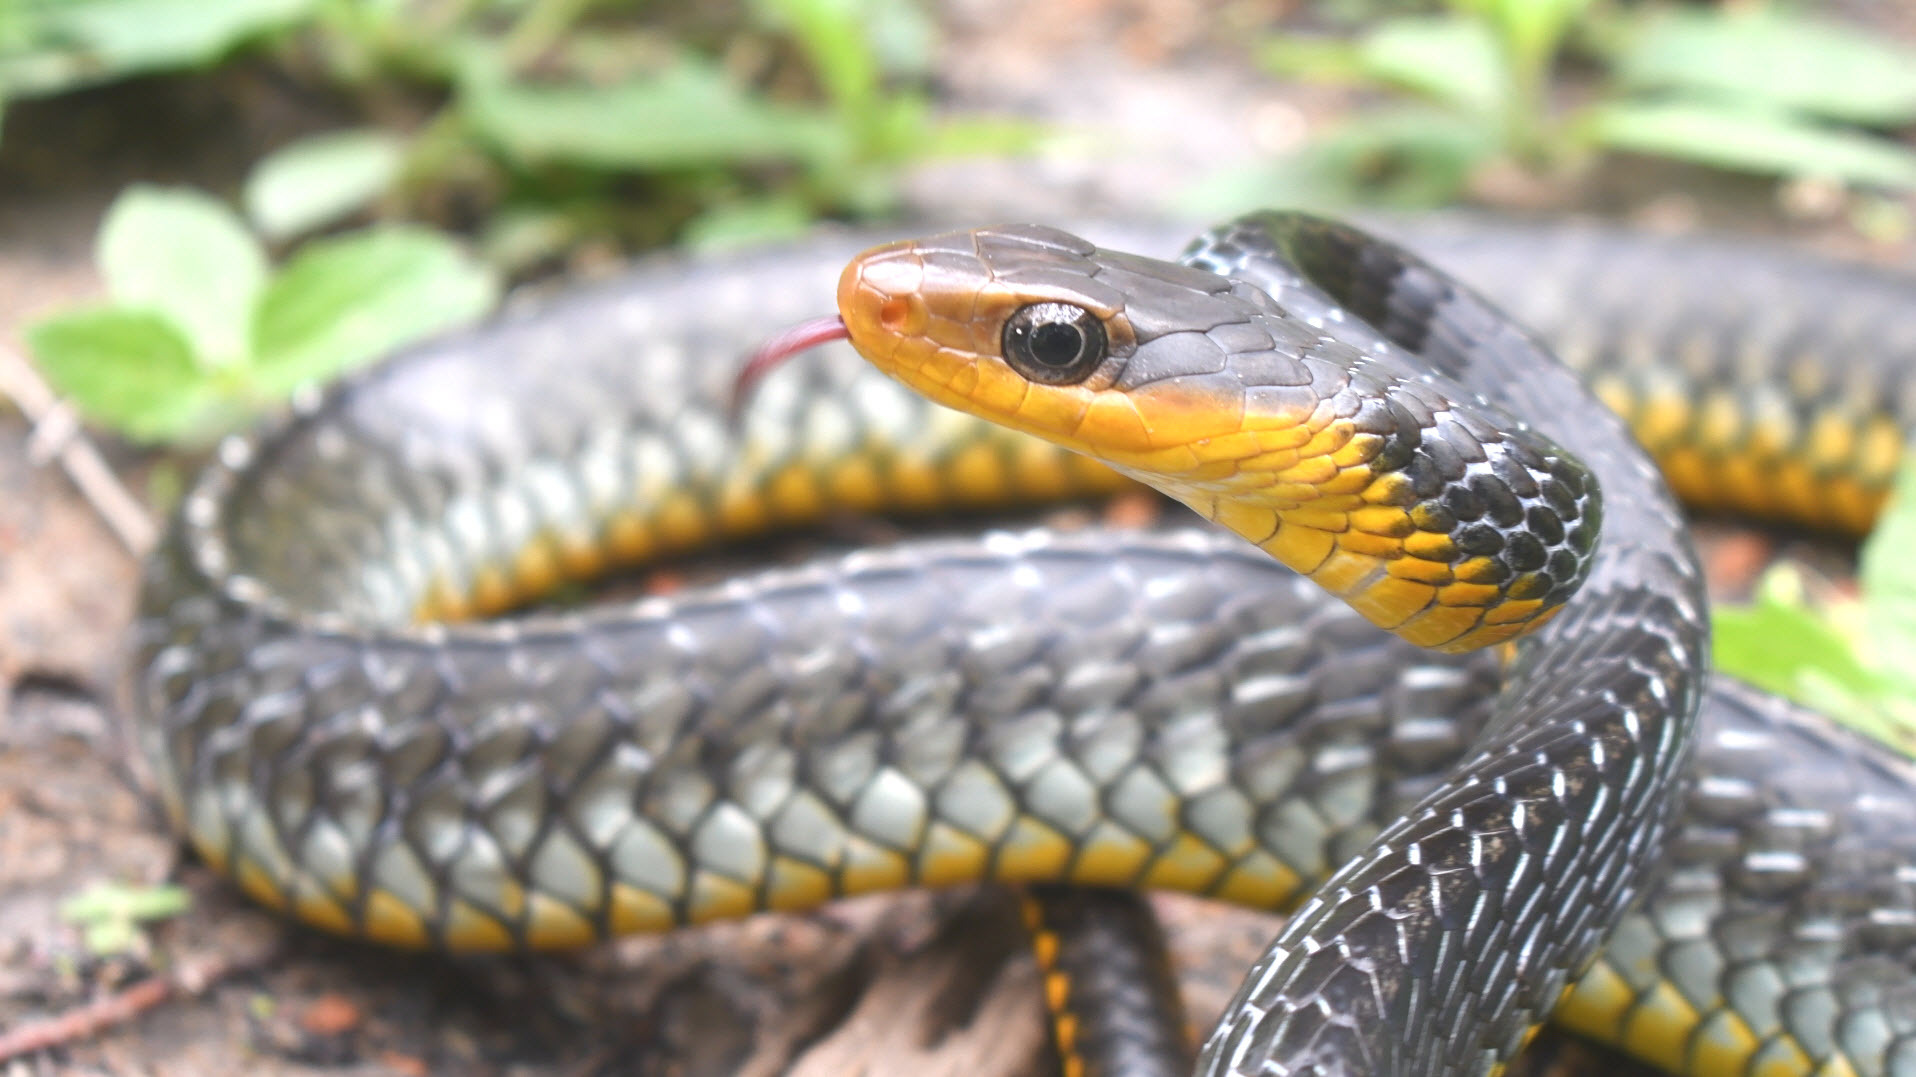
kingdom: Animalia
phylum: Chordata
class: Squamata
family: Colubridae
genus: Chironius
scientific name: Chironius carinatus
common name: Sipo
